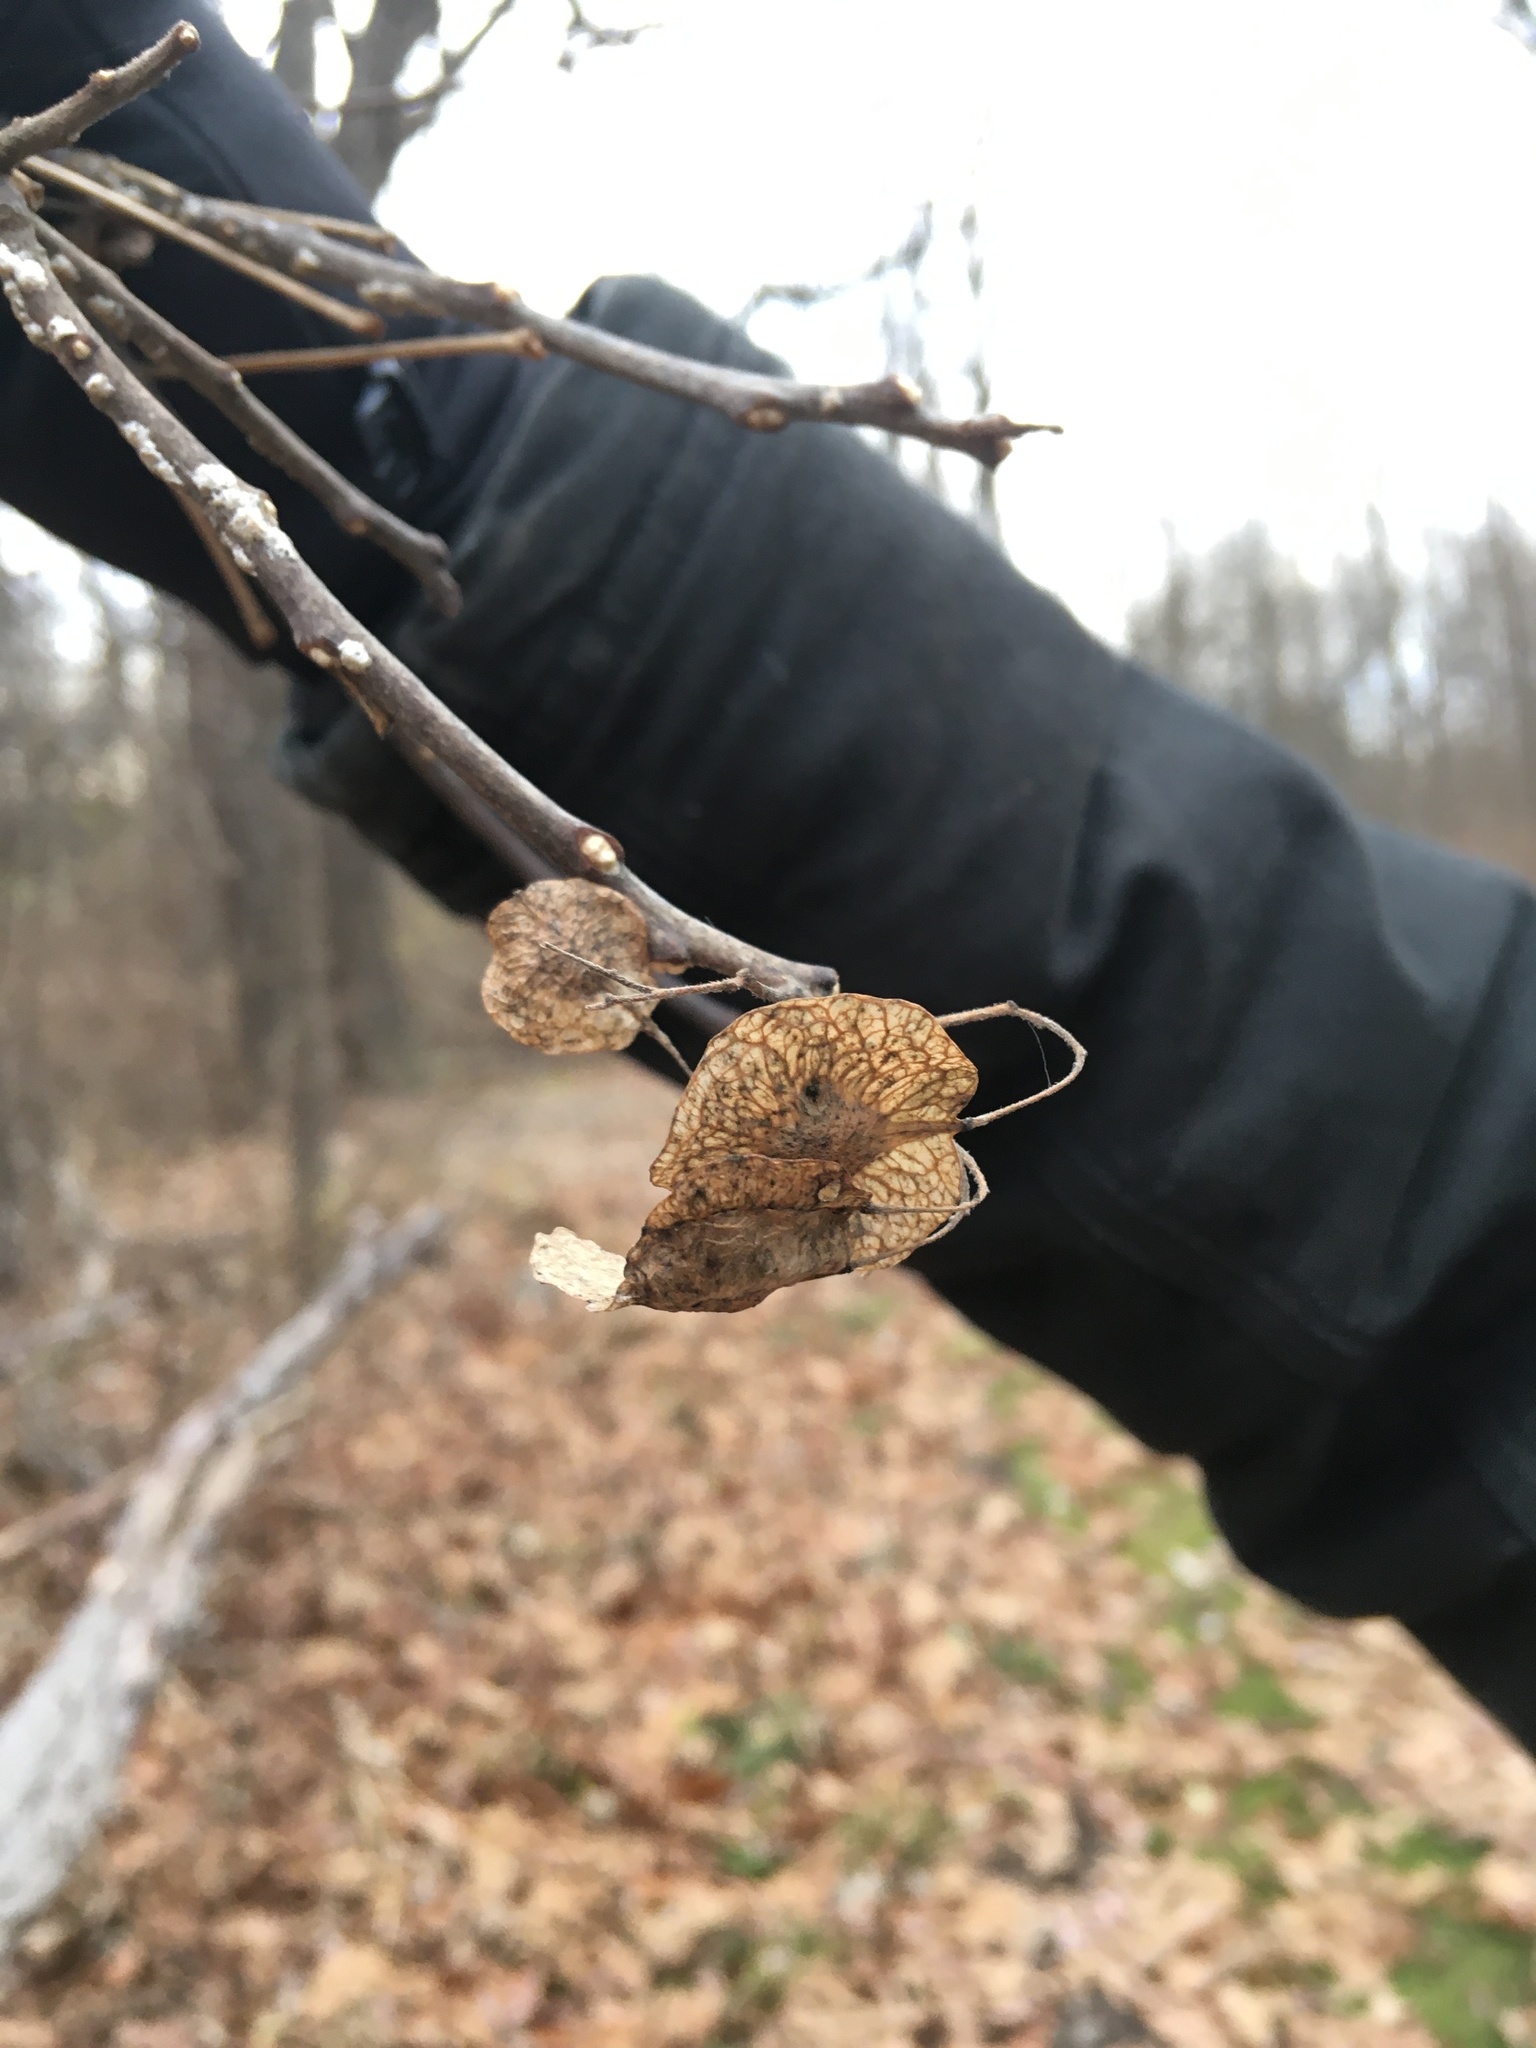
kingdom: Plantae
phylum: Tracheophyta
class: Magnoliopsida
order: Sapindales
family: Rutaceae
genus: Ptelea
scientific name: Ptelea trifoliata
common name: Common hop-tree
